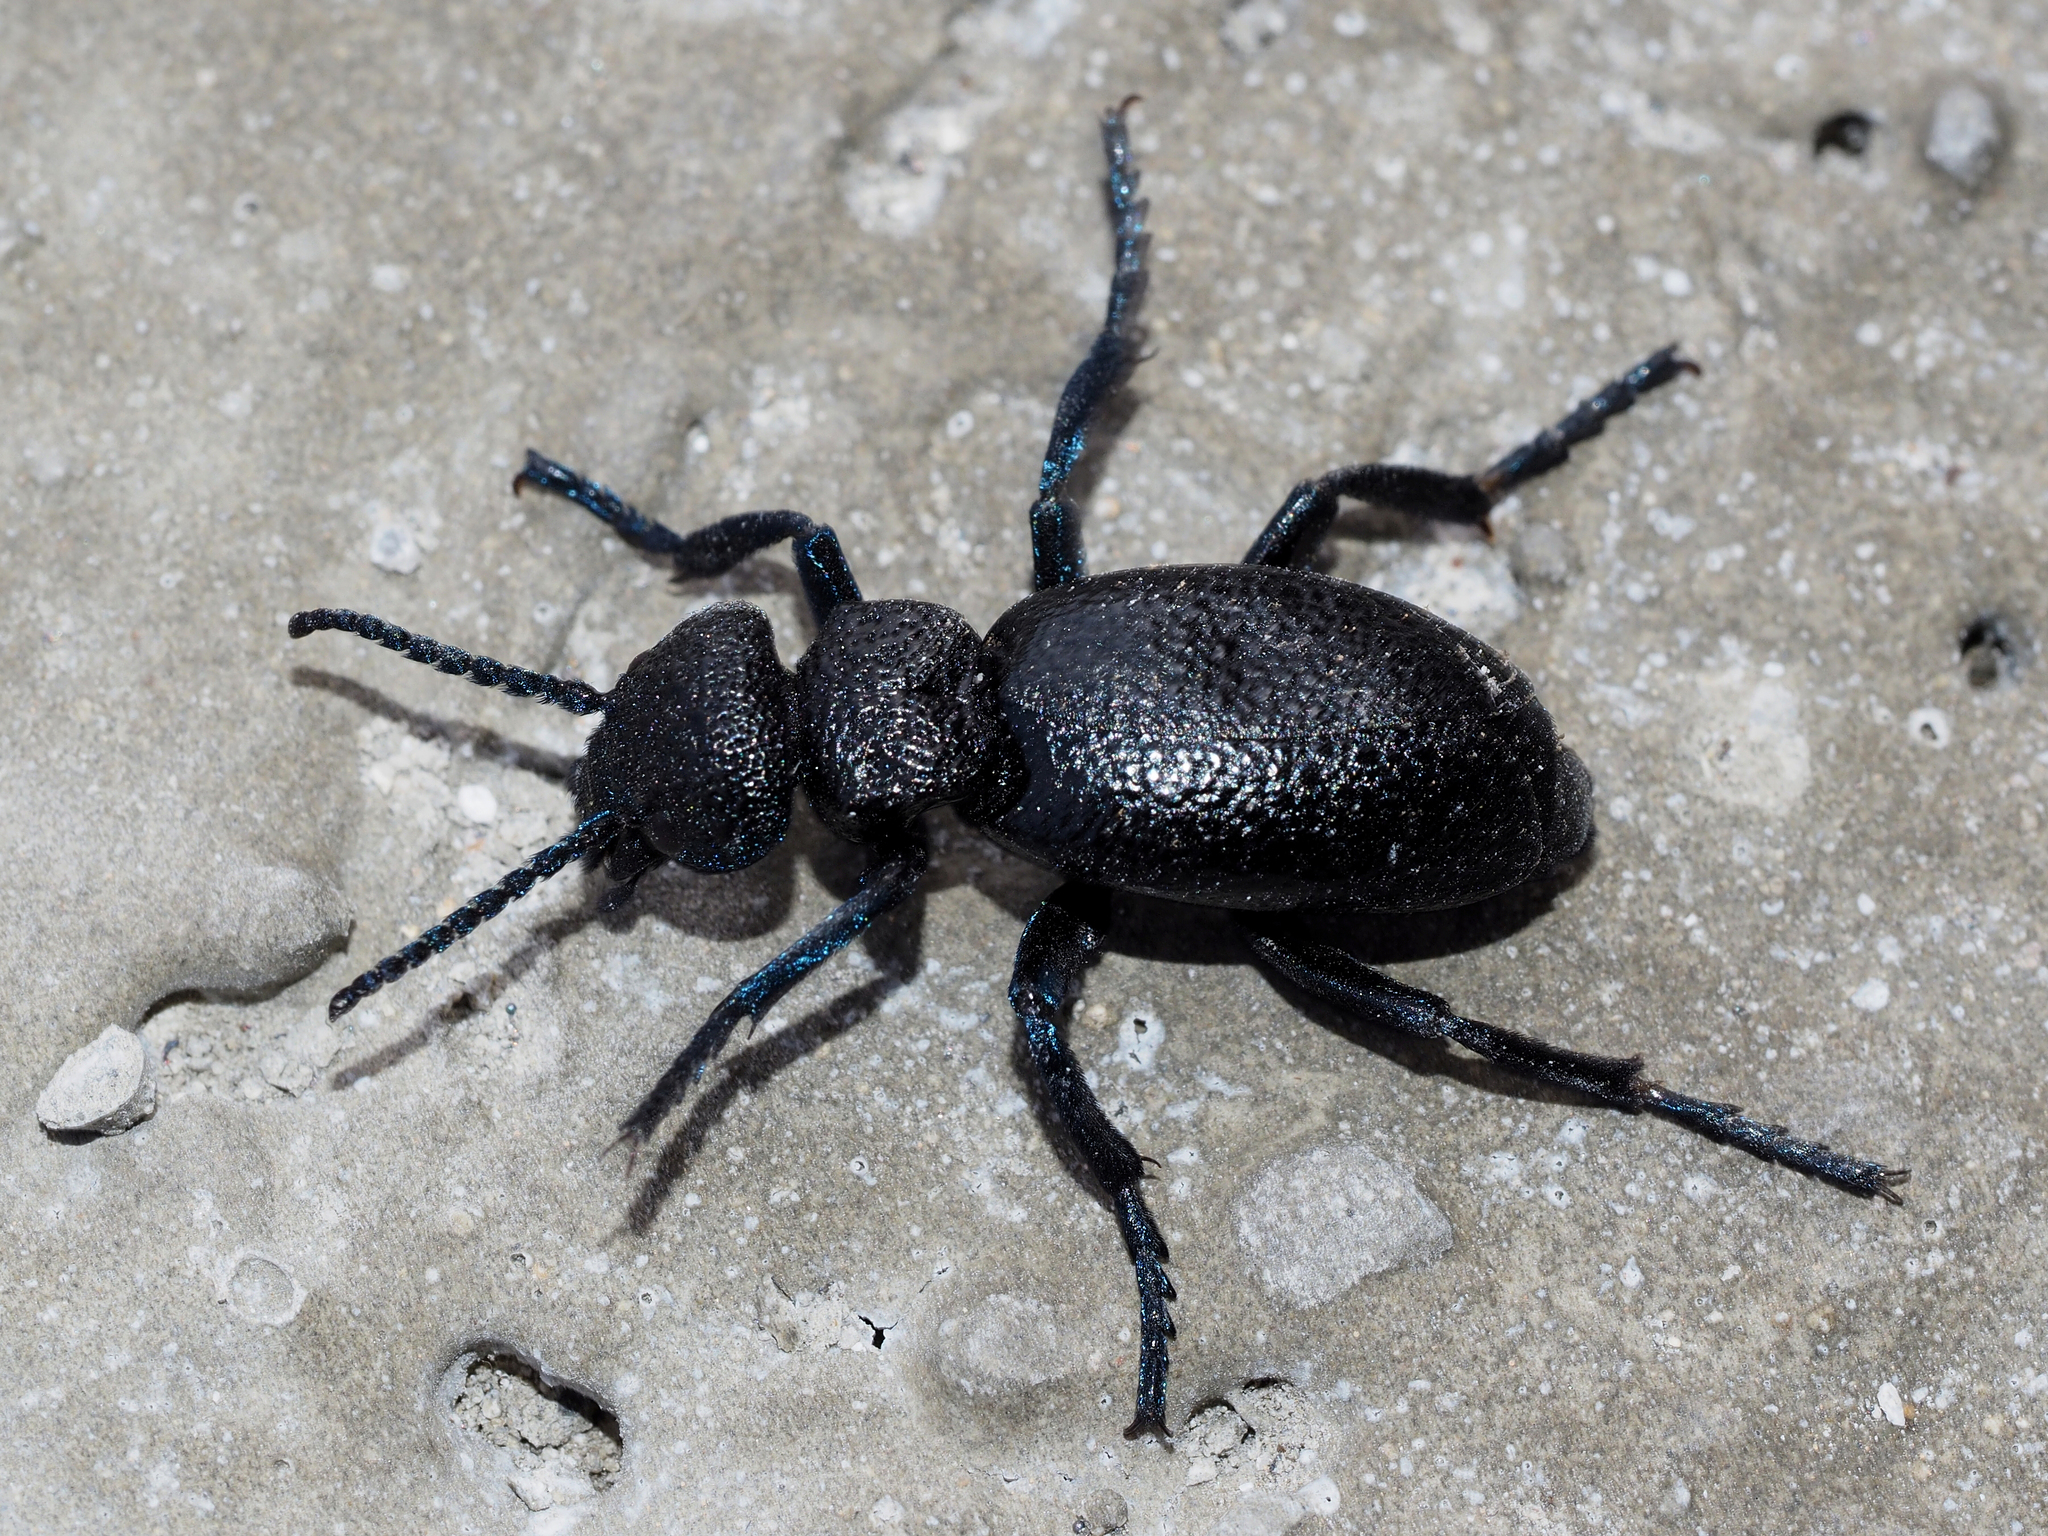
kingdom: Animalia
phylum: Arthropoda
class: Insecta
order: Coleoptera
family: Meloidae
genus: Meloe
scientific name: Meloe cicatricosus
